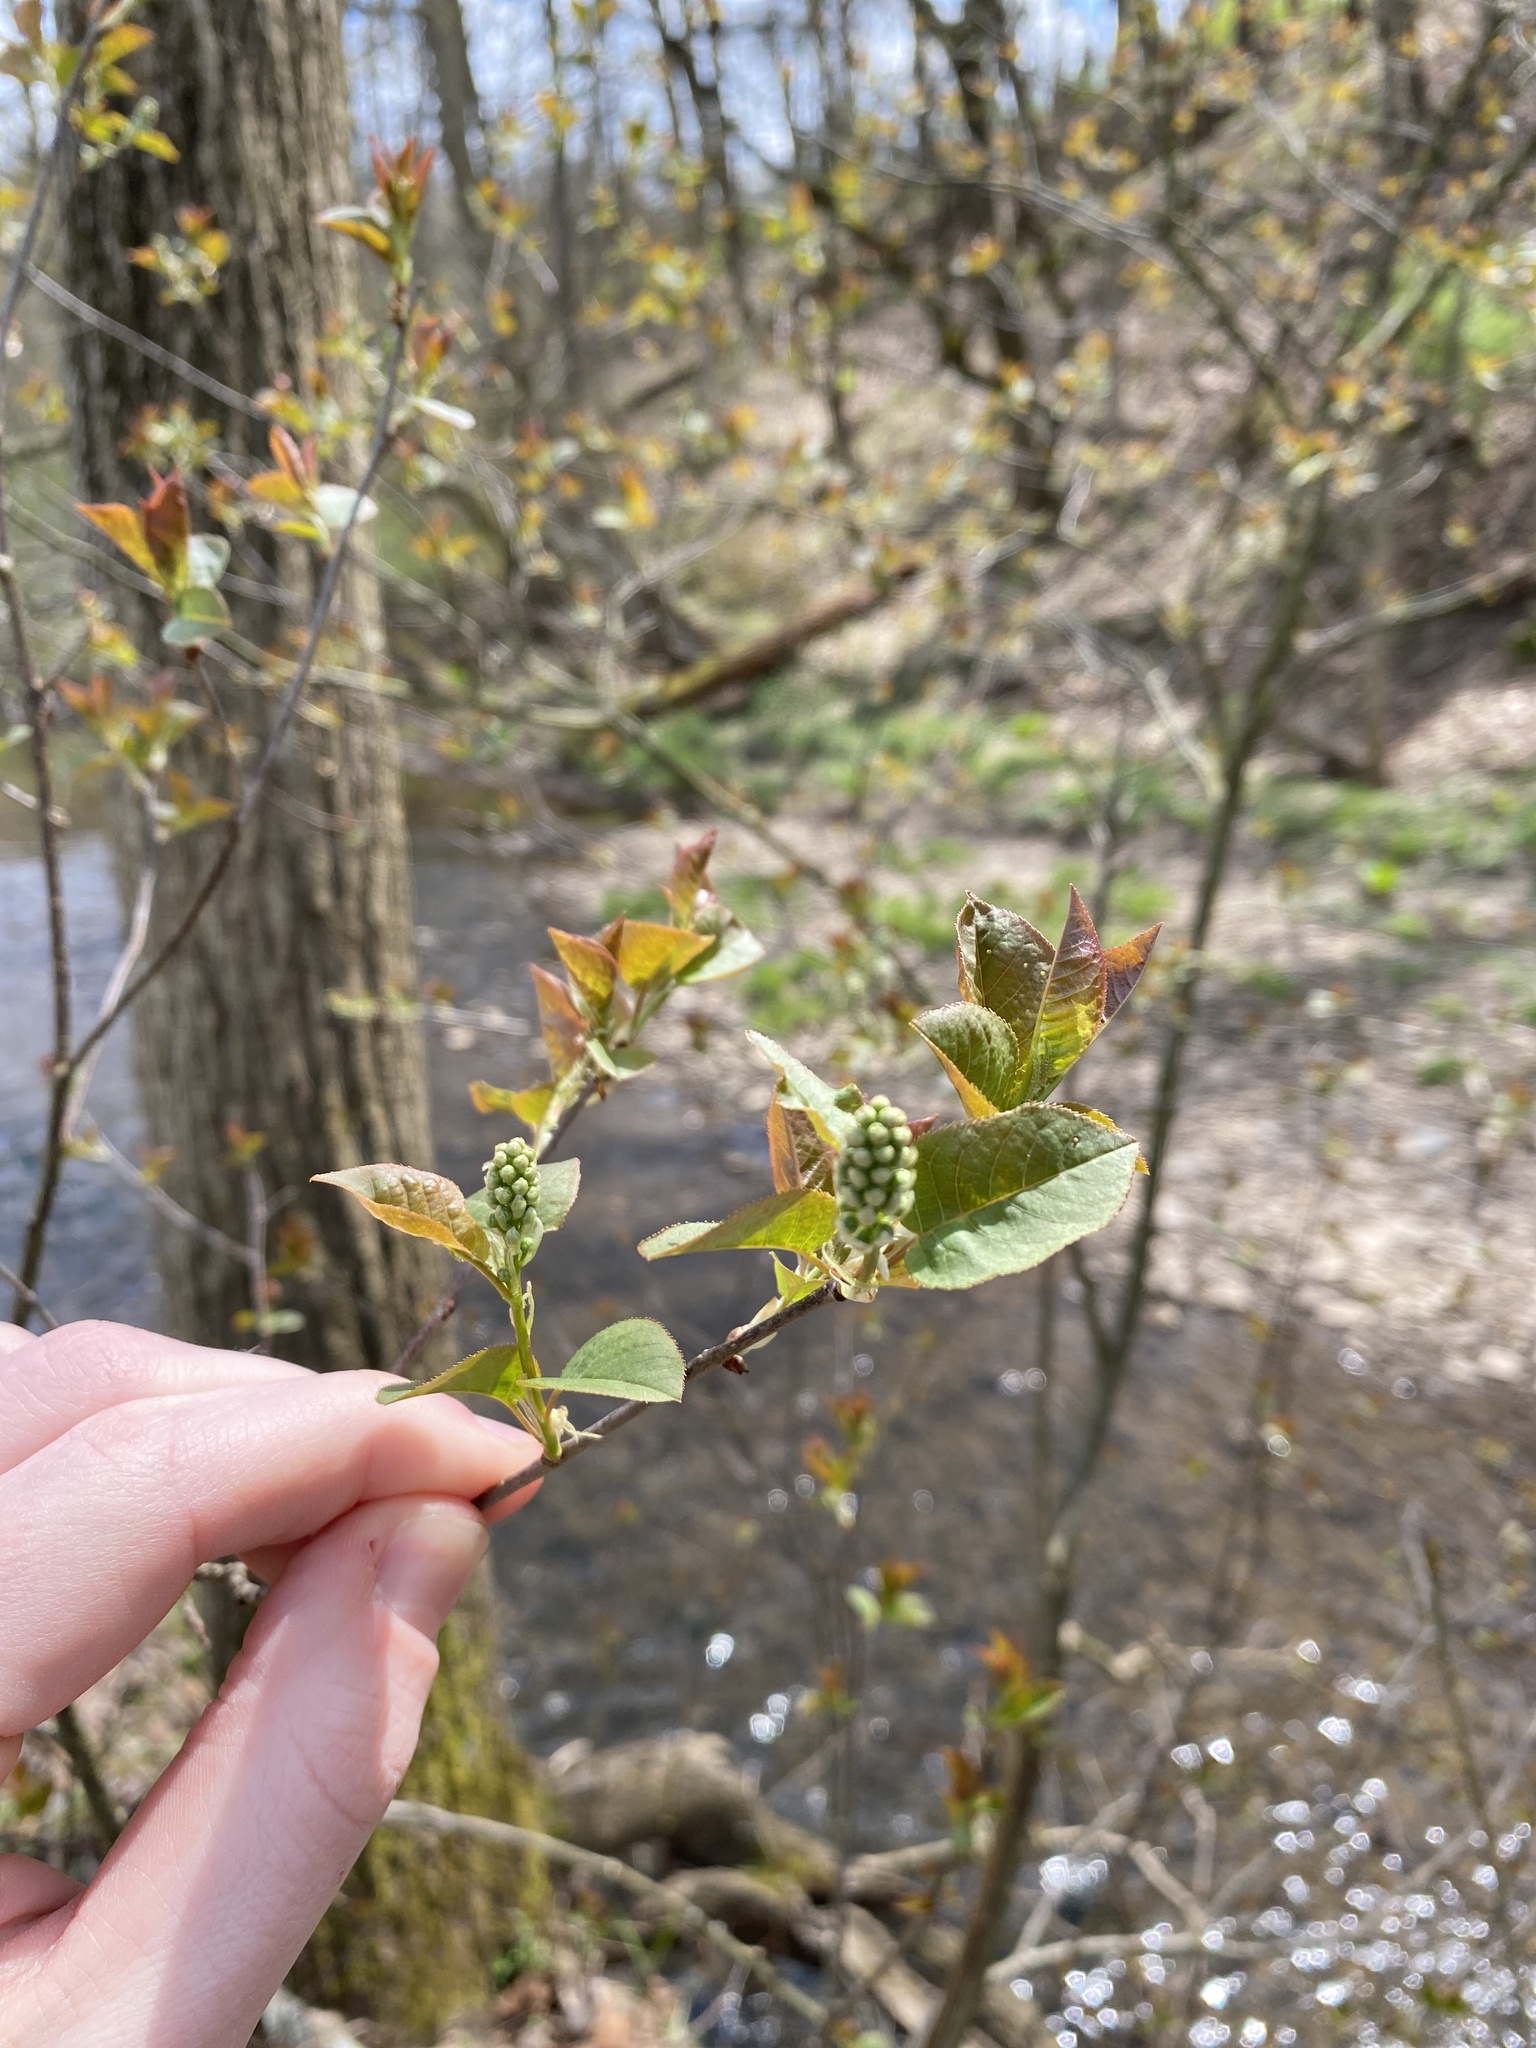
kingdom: Plantae
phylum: Tracheophyta
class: Magnoliopsida
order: Rosales
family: Rosaceae
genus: Prunus
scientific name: Prunus virginiana
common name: Chokecherry
